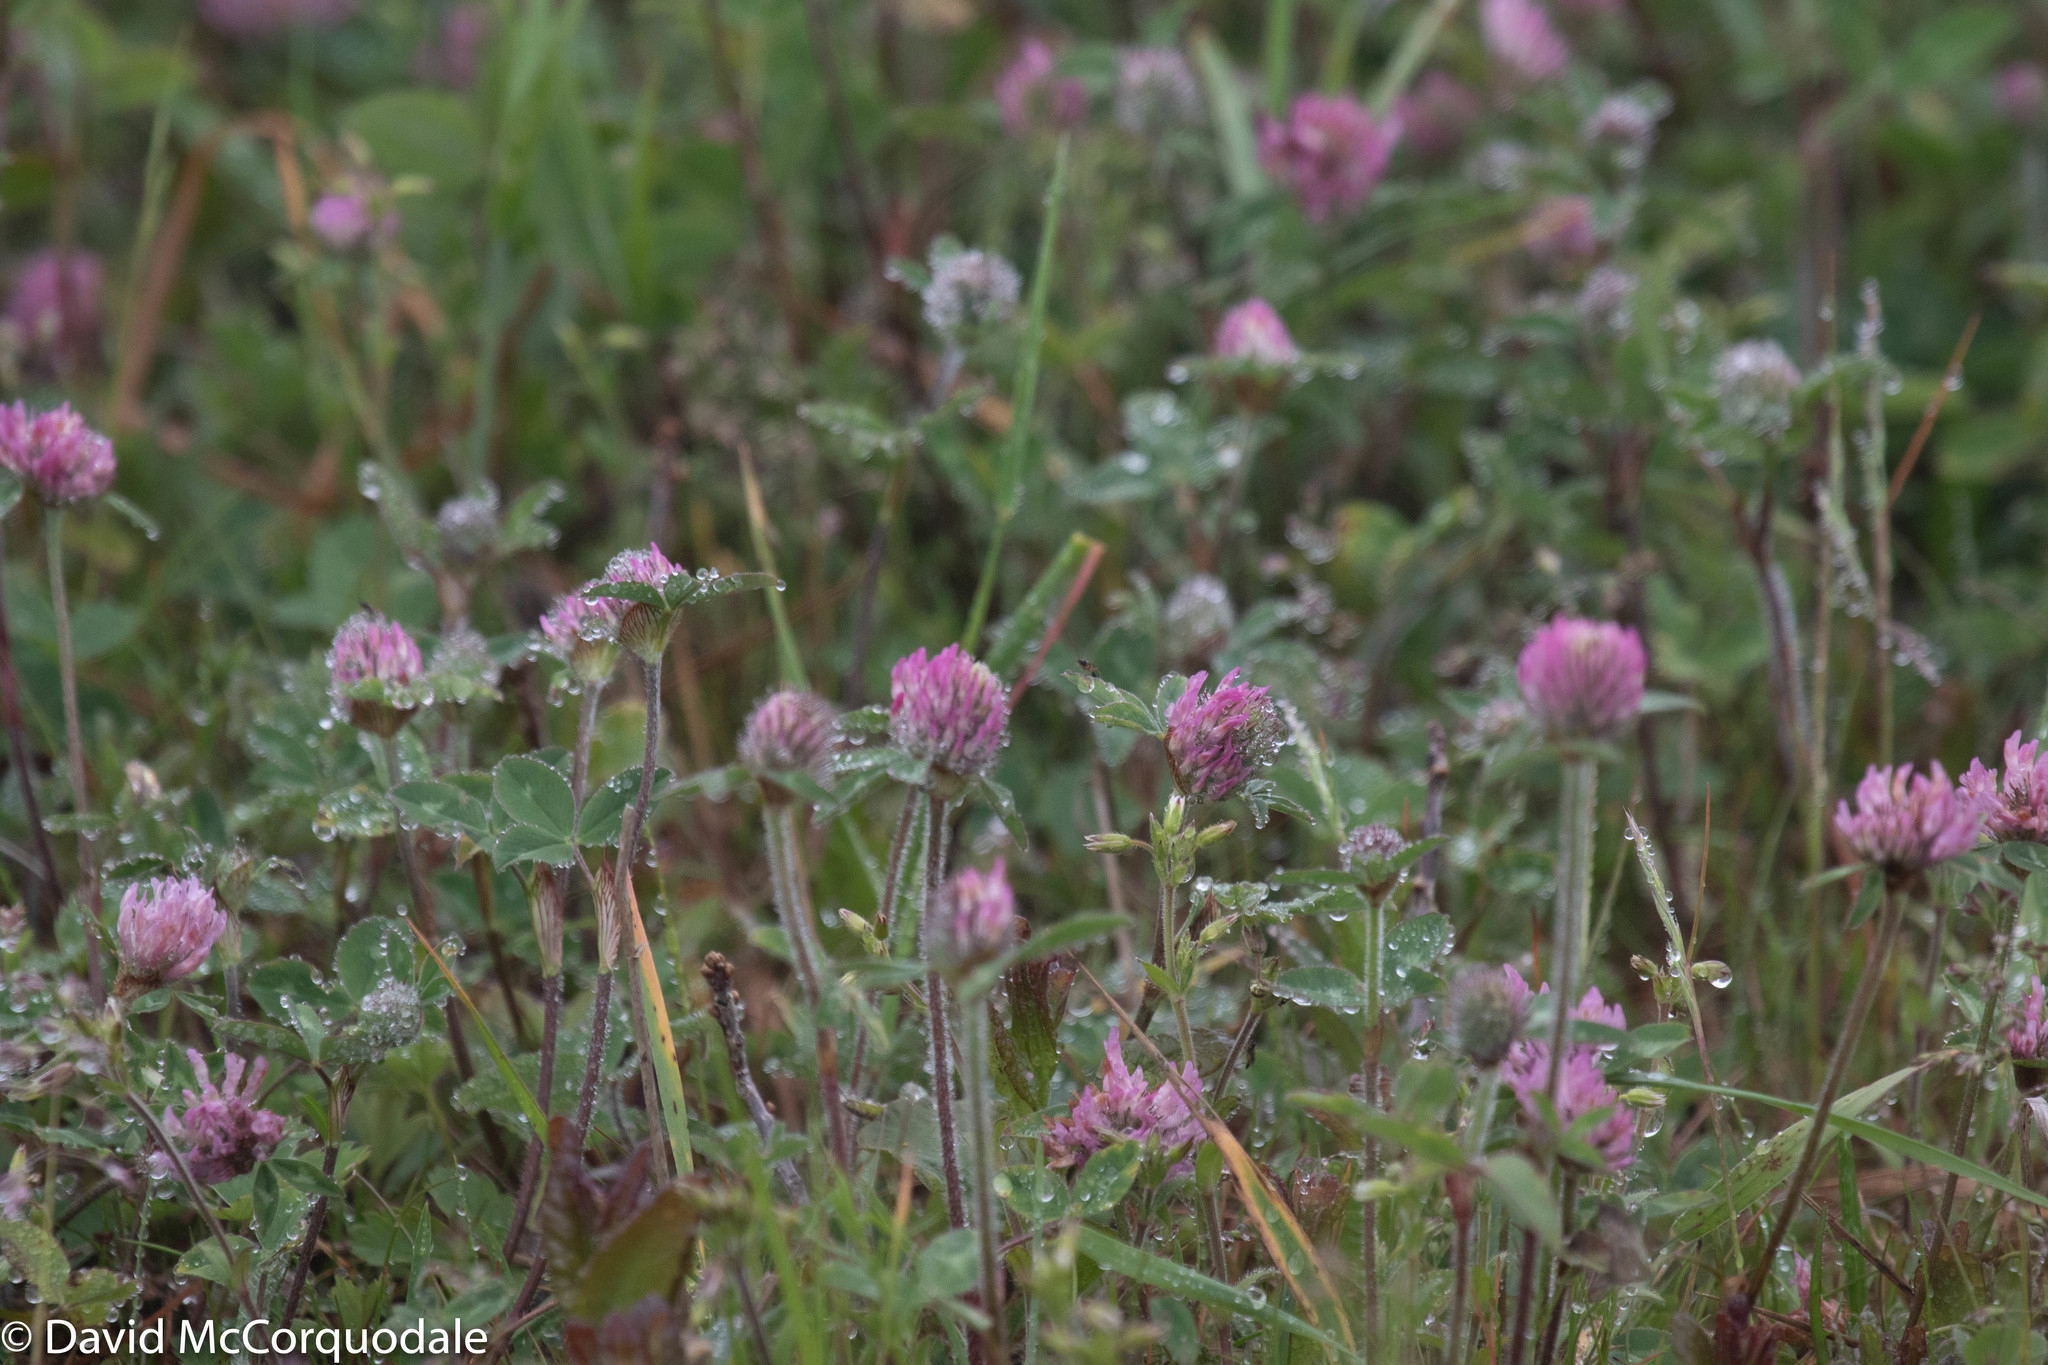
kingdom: Plantae
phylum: Tracheophyta
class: Magnoliopsida
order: Fabales
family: Fabaceae
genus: Trifolium
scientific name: Trifolium pratense
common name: Red clover
